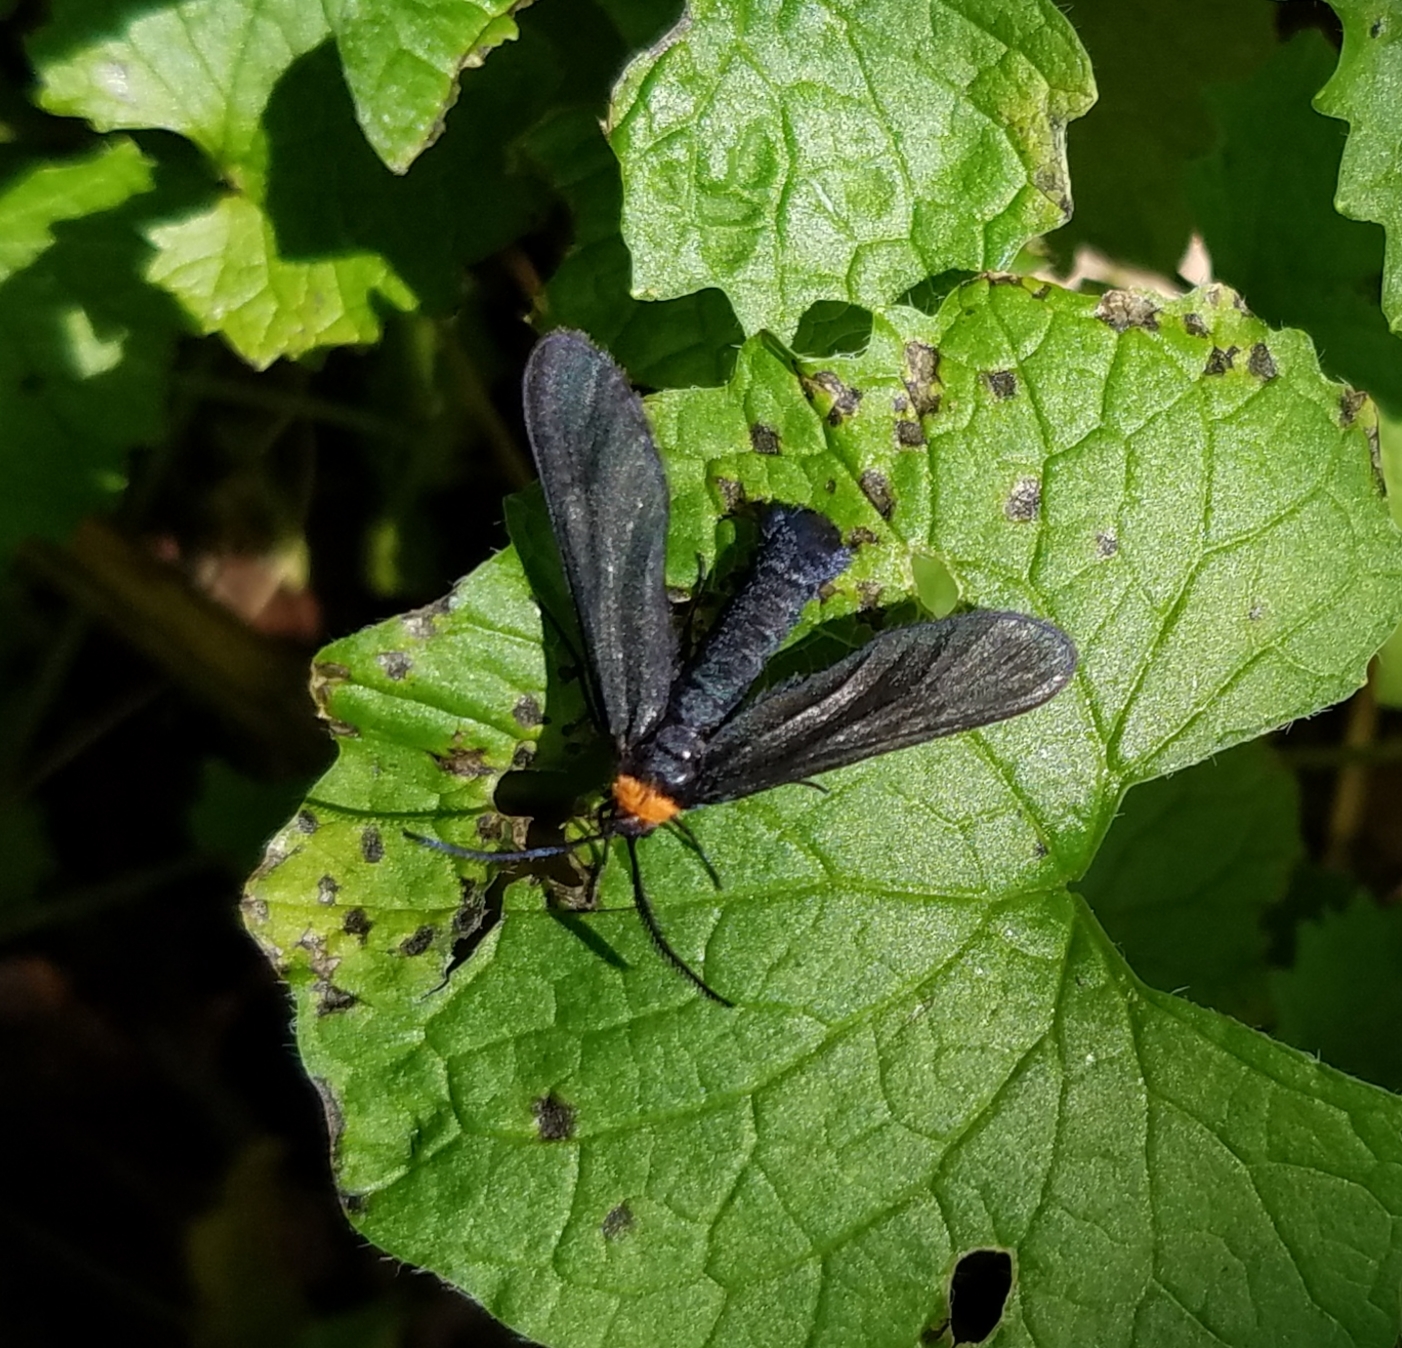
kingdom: Animalia
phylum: Arthropoda
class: Insecta
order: Lepidoptera
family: Zygaenidae
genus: Harrisina
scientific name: Harrisina americana
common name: Grapeleaf skeletonizer moth
